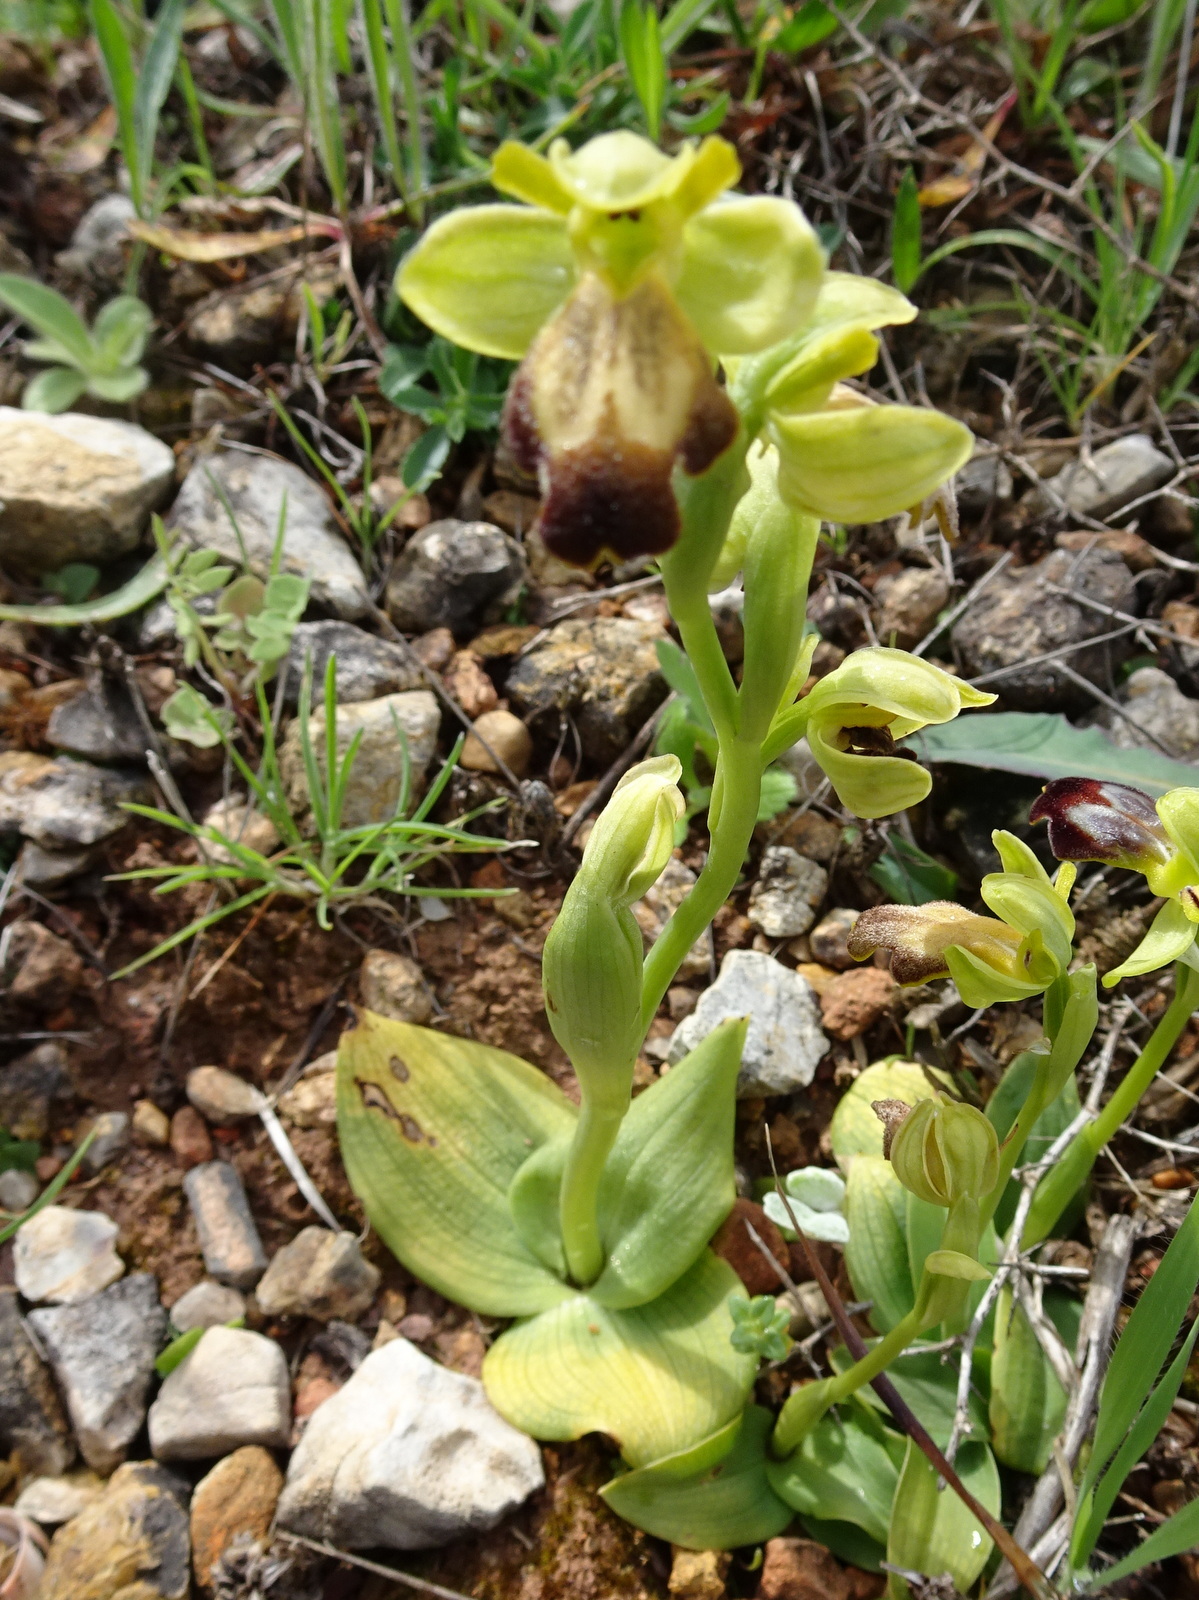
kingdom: Plantae
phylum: Tracheophyta
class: Liliopsida
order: Asparagales
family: Orchidaceae
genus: Ophrys
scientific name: Ophrys fusca
